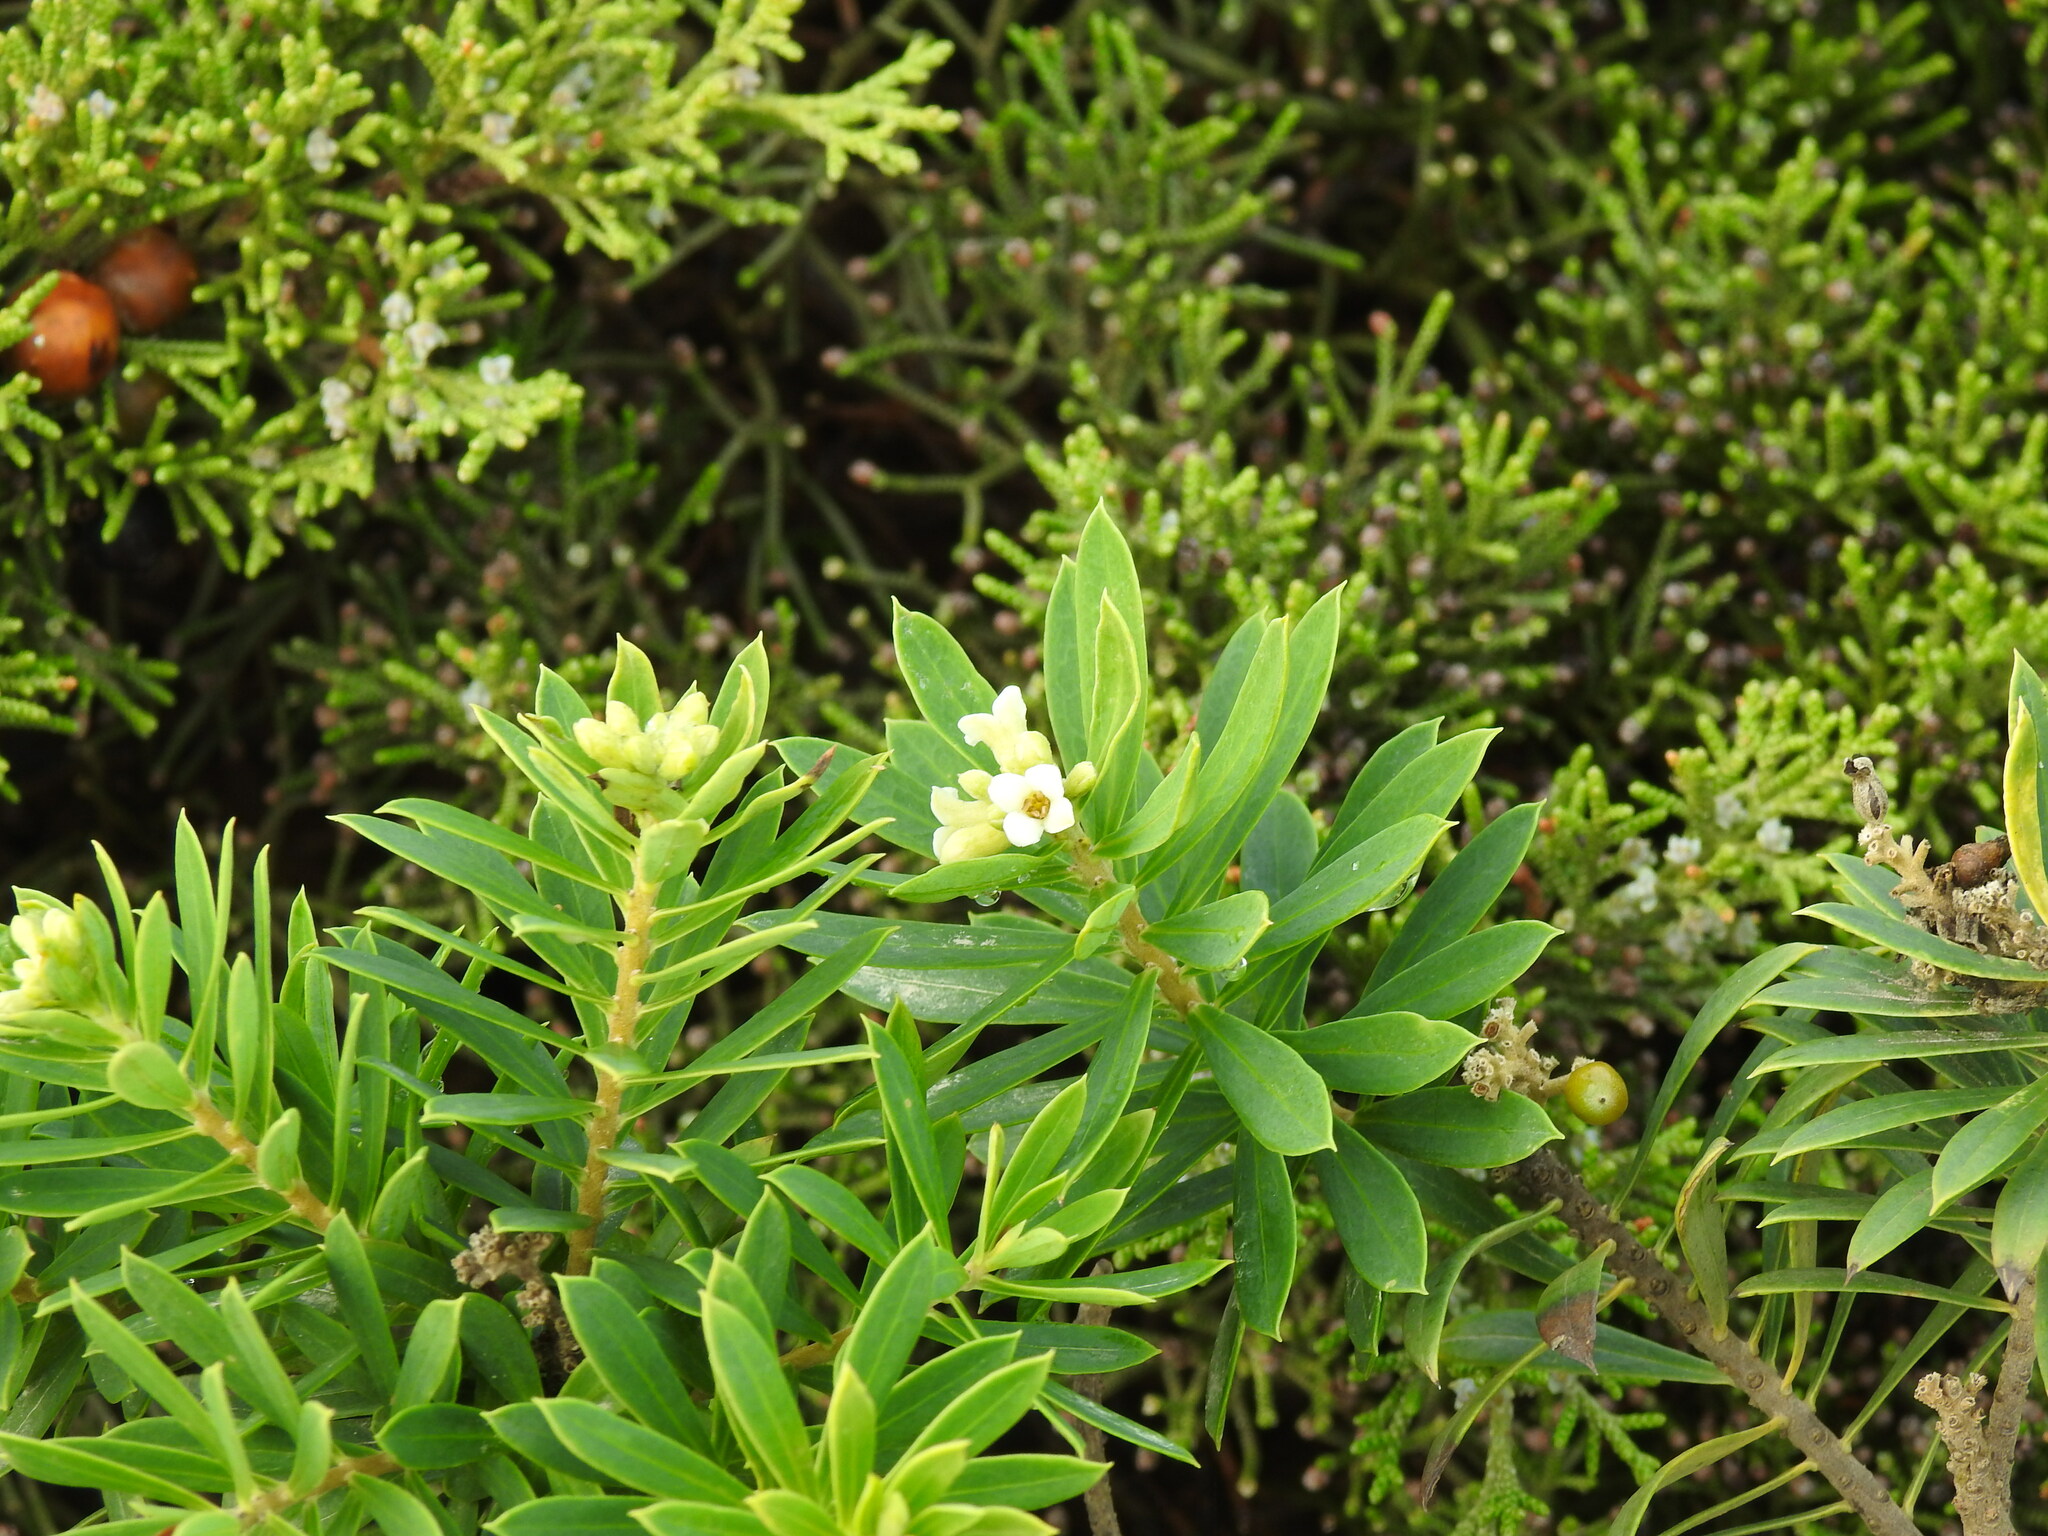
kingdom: Plantae
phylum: Tracheophyta
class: Magnoliopsida
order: Malvales
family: Thymelaeaceae
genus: Daphne
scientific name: Daphne gnidium
